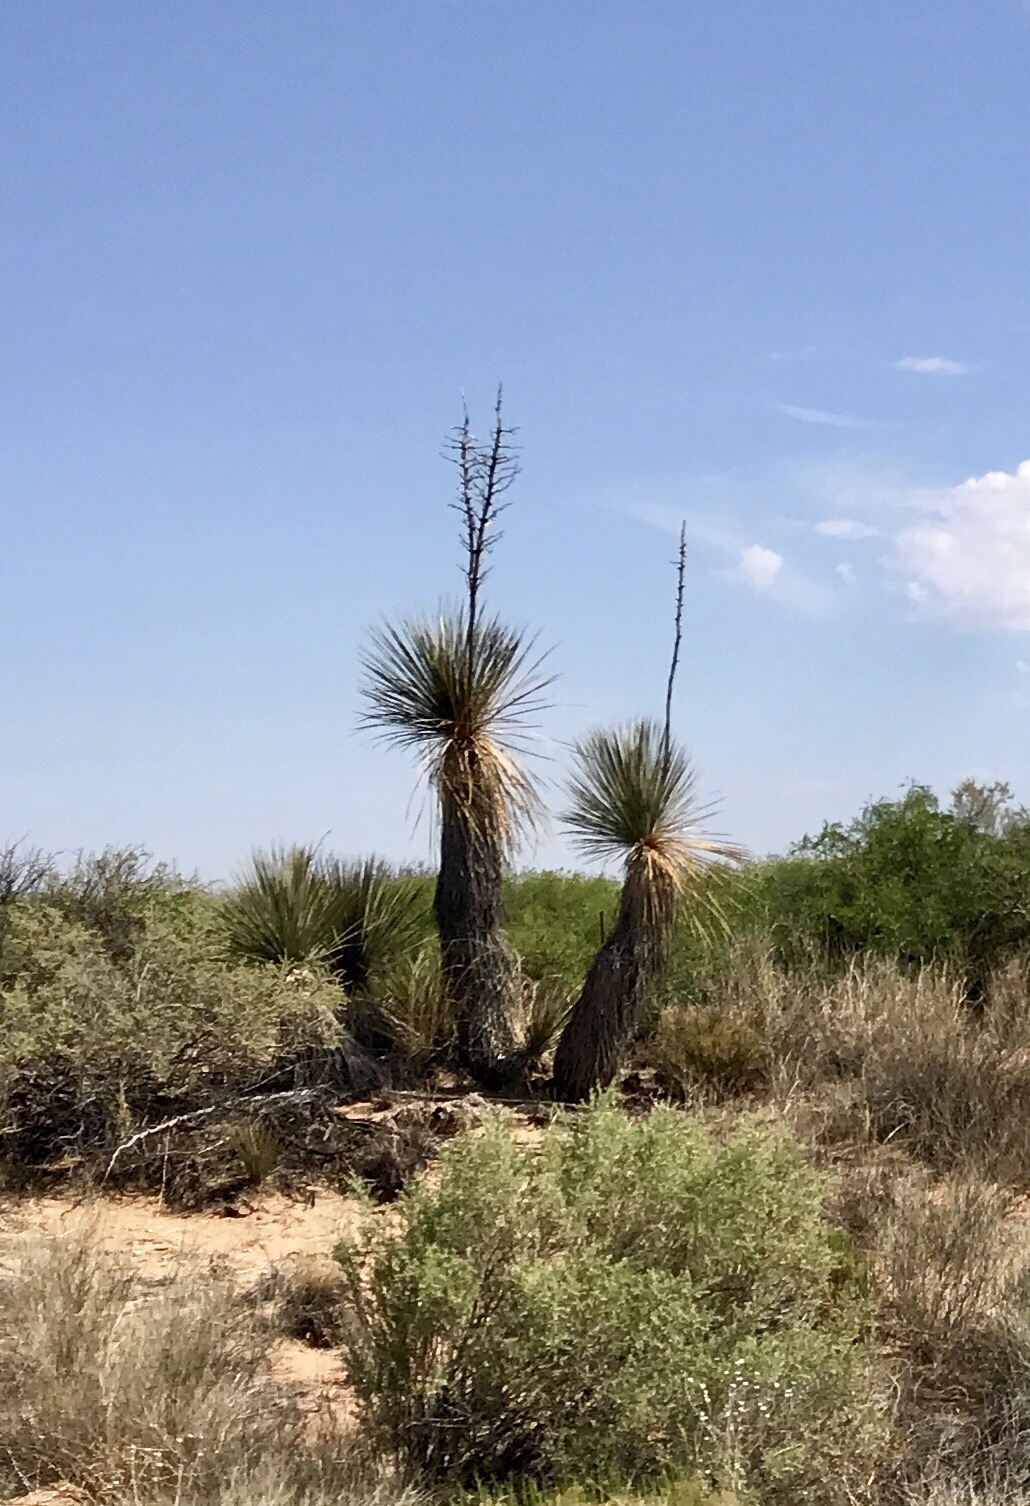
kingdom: Plantae
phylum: Tracheophyta
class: Liliopsida
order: Asparagales
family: Asparagaceae
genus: Yucca
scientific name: Yucca elata
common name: Palmella
